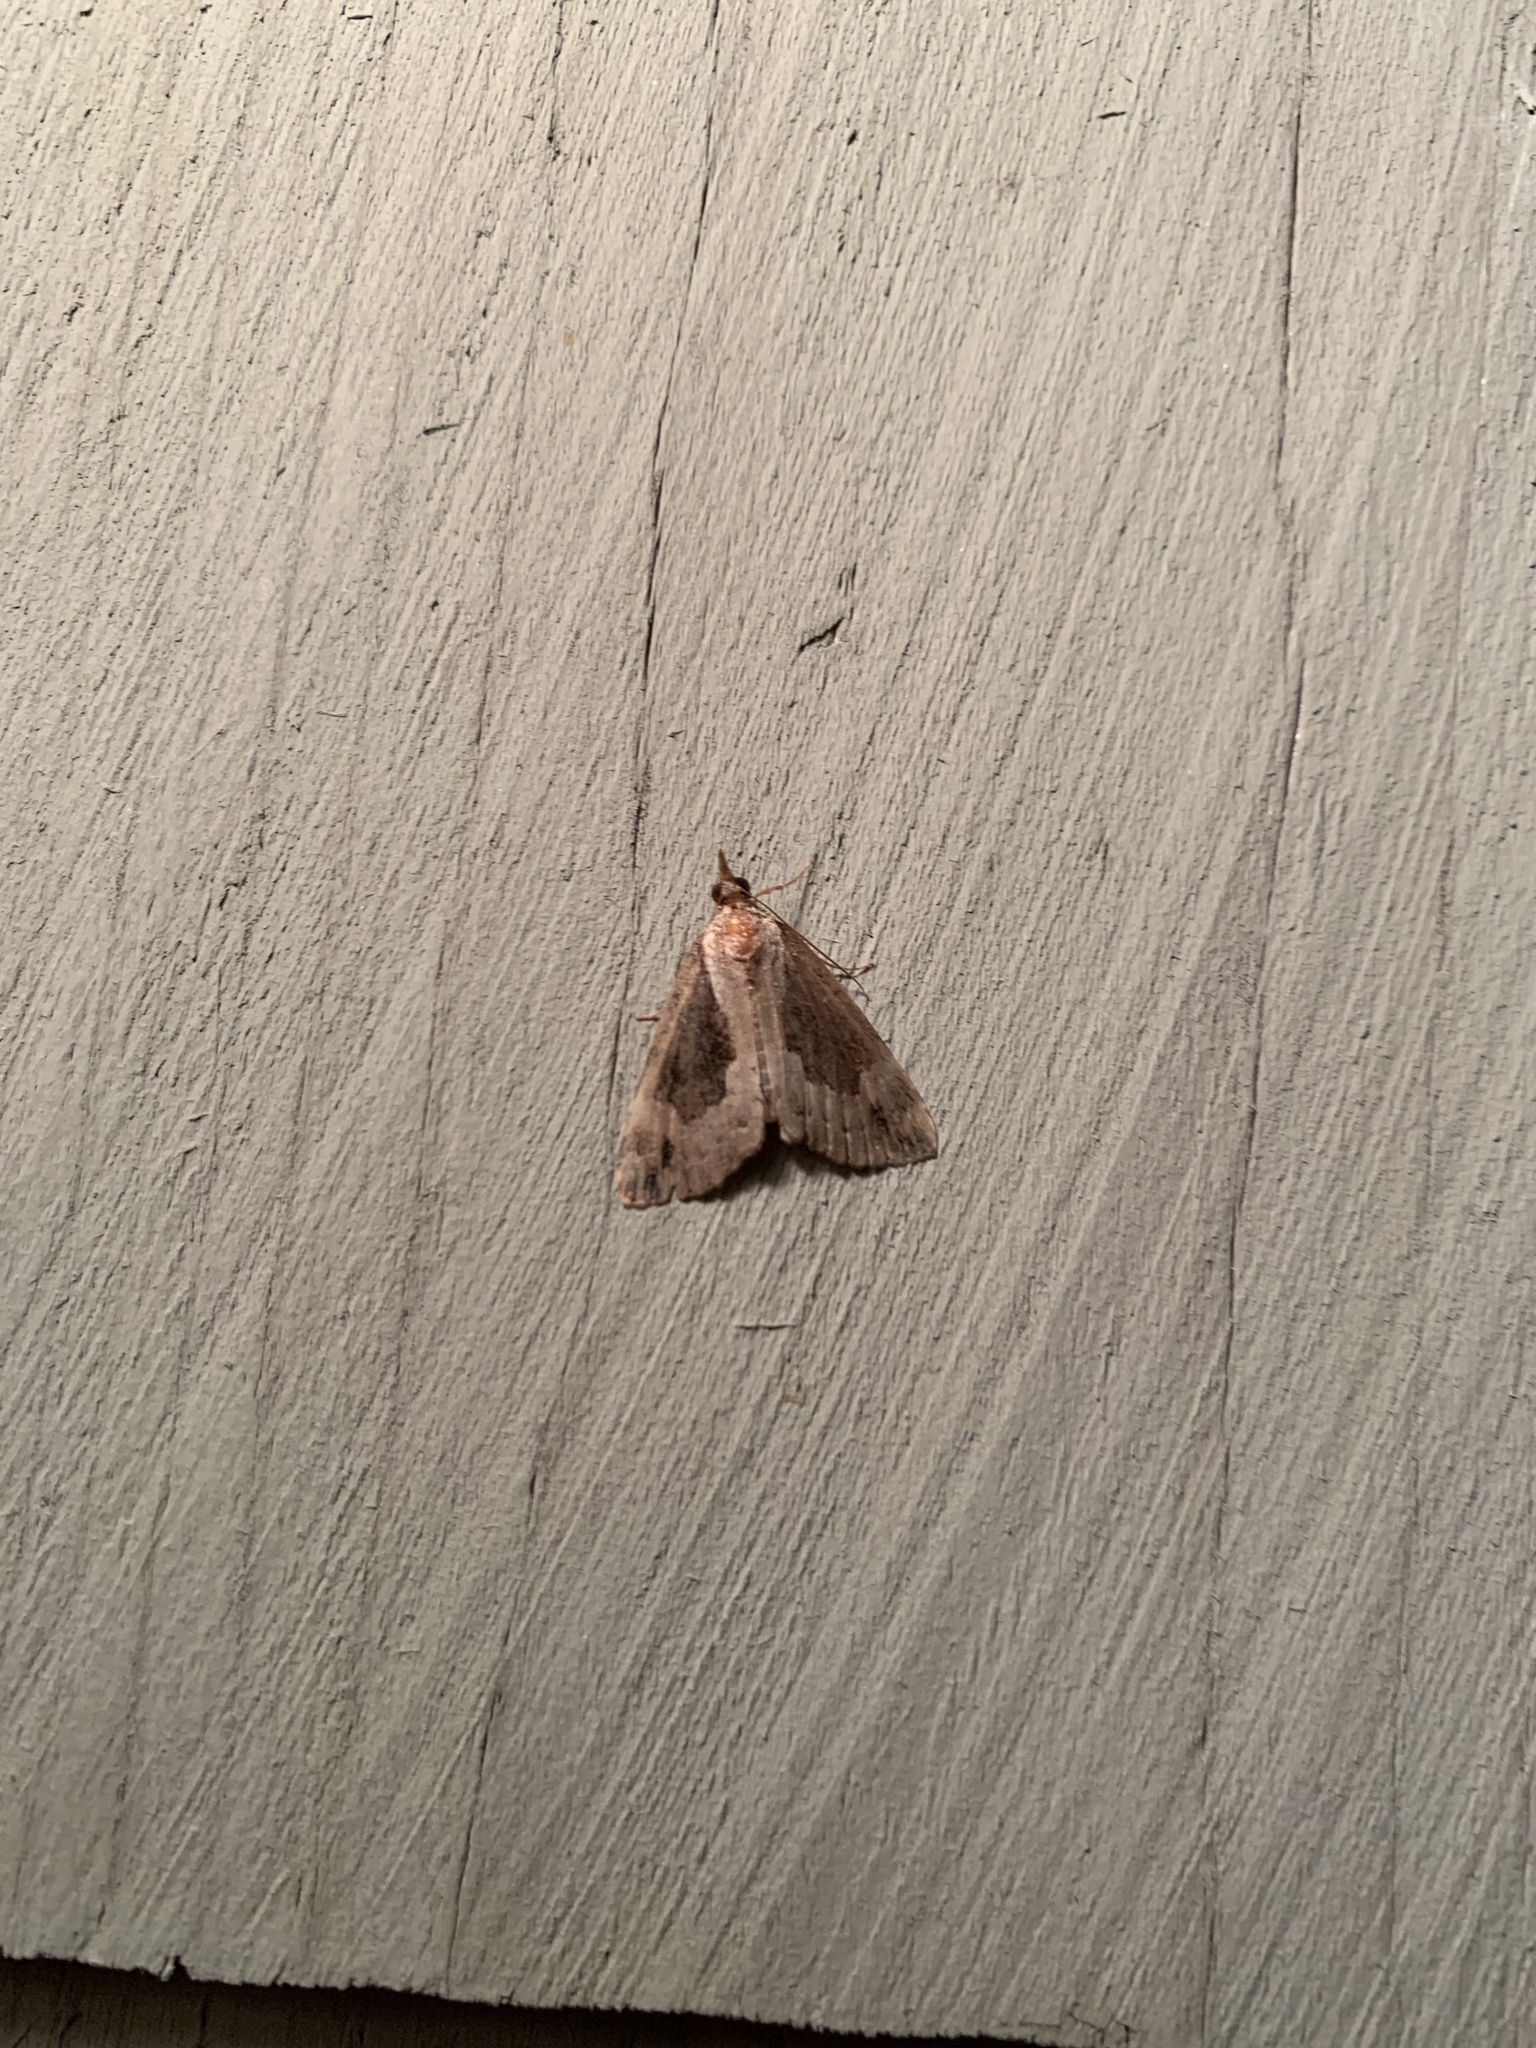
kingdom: Animalia
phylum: Arthropoda
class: Insecta
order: Lepidoptera
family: Erebidae
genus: Hypena
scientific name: Hypena baltimoralis
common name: Baltimore snout
